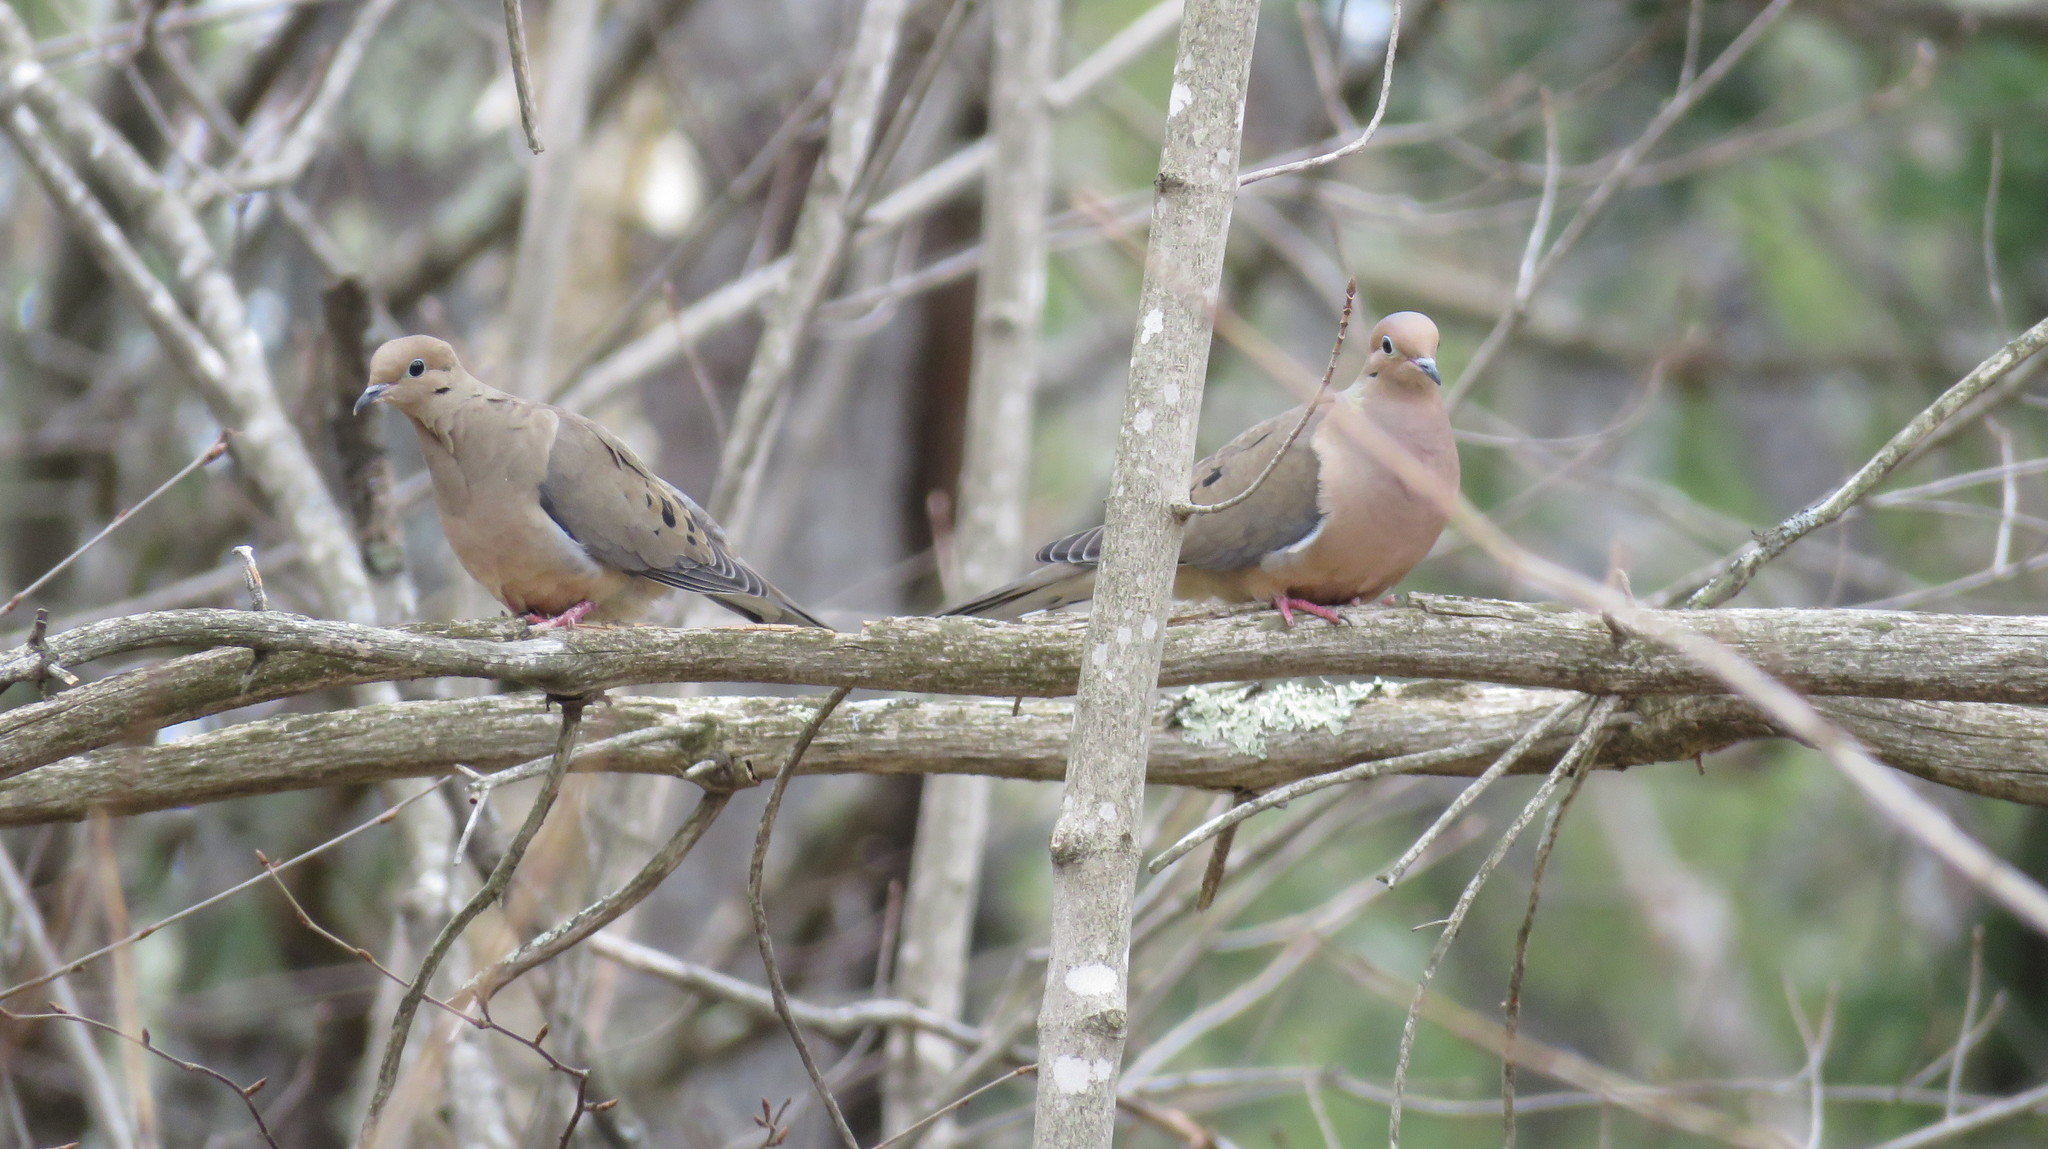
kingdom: Animalia
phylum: Chordata
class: Aves
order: Columbiformes
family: Columbidae
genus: Zenaida
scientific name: Zenaida macroura
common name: Mourning dove
